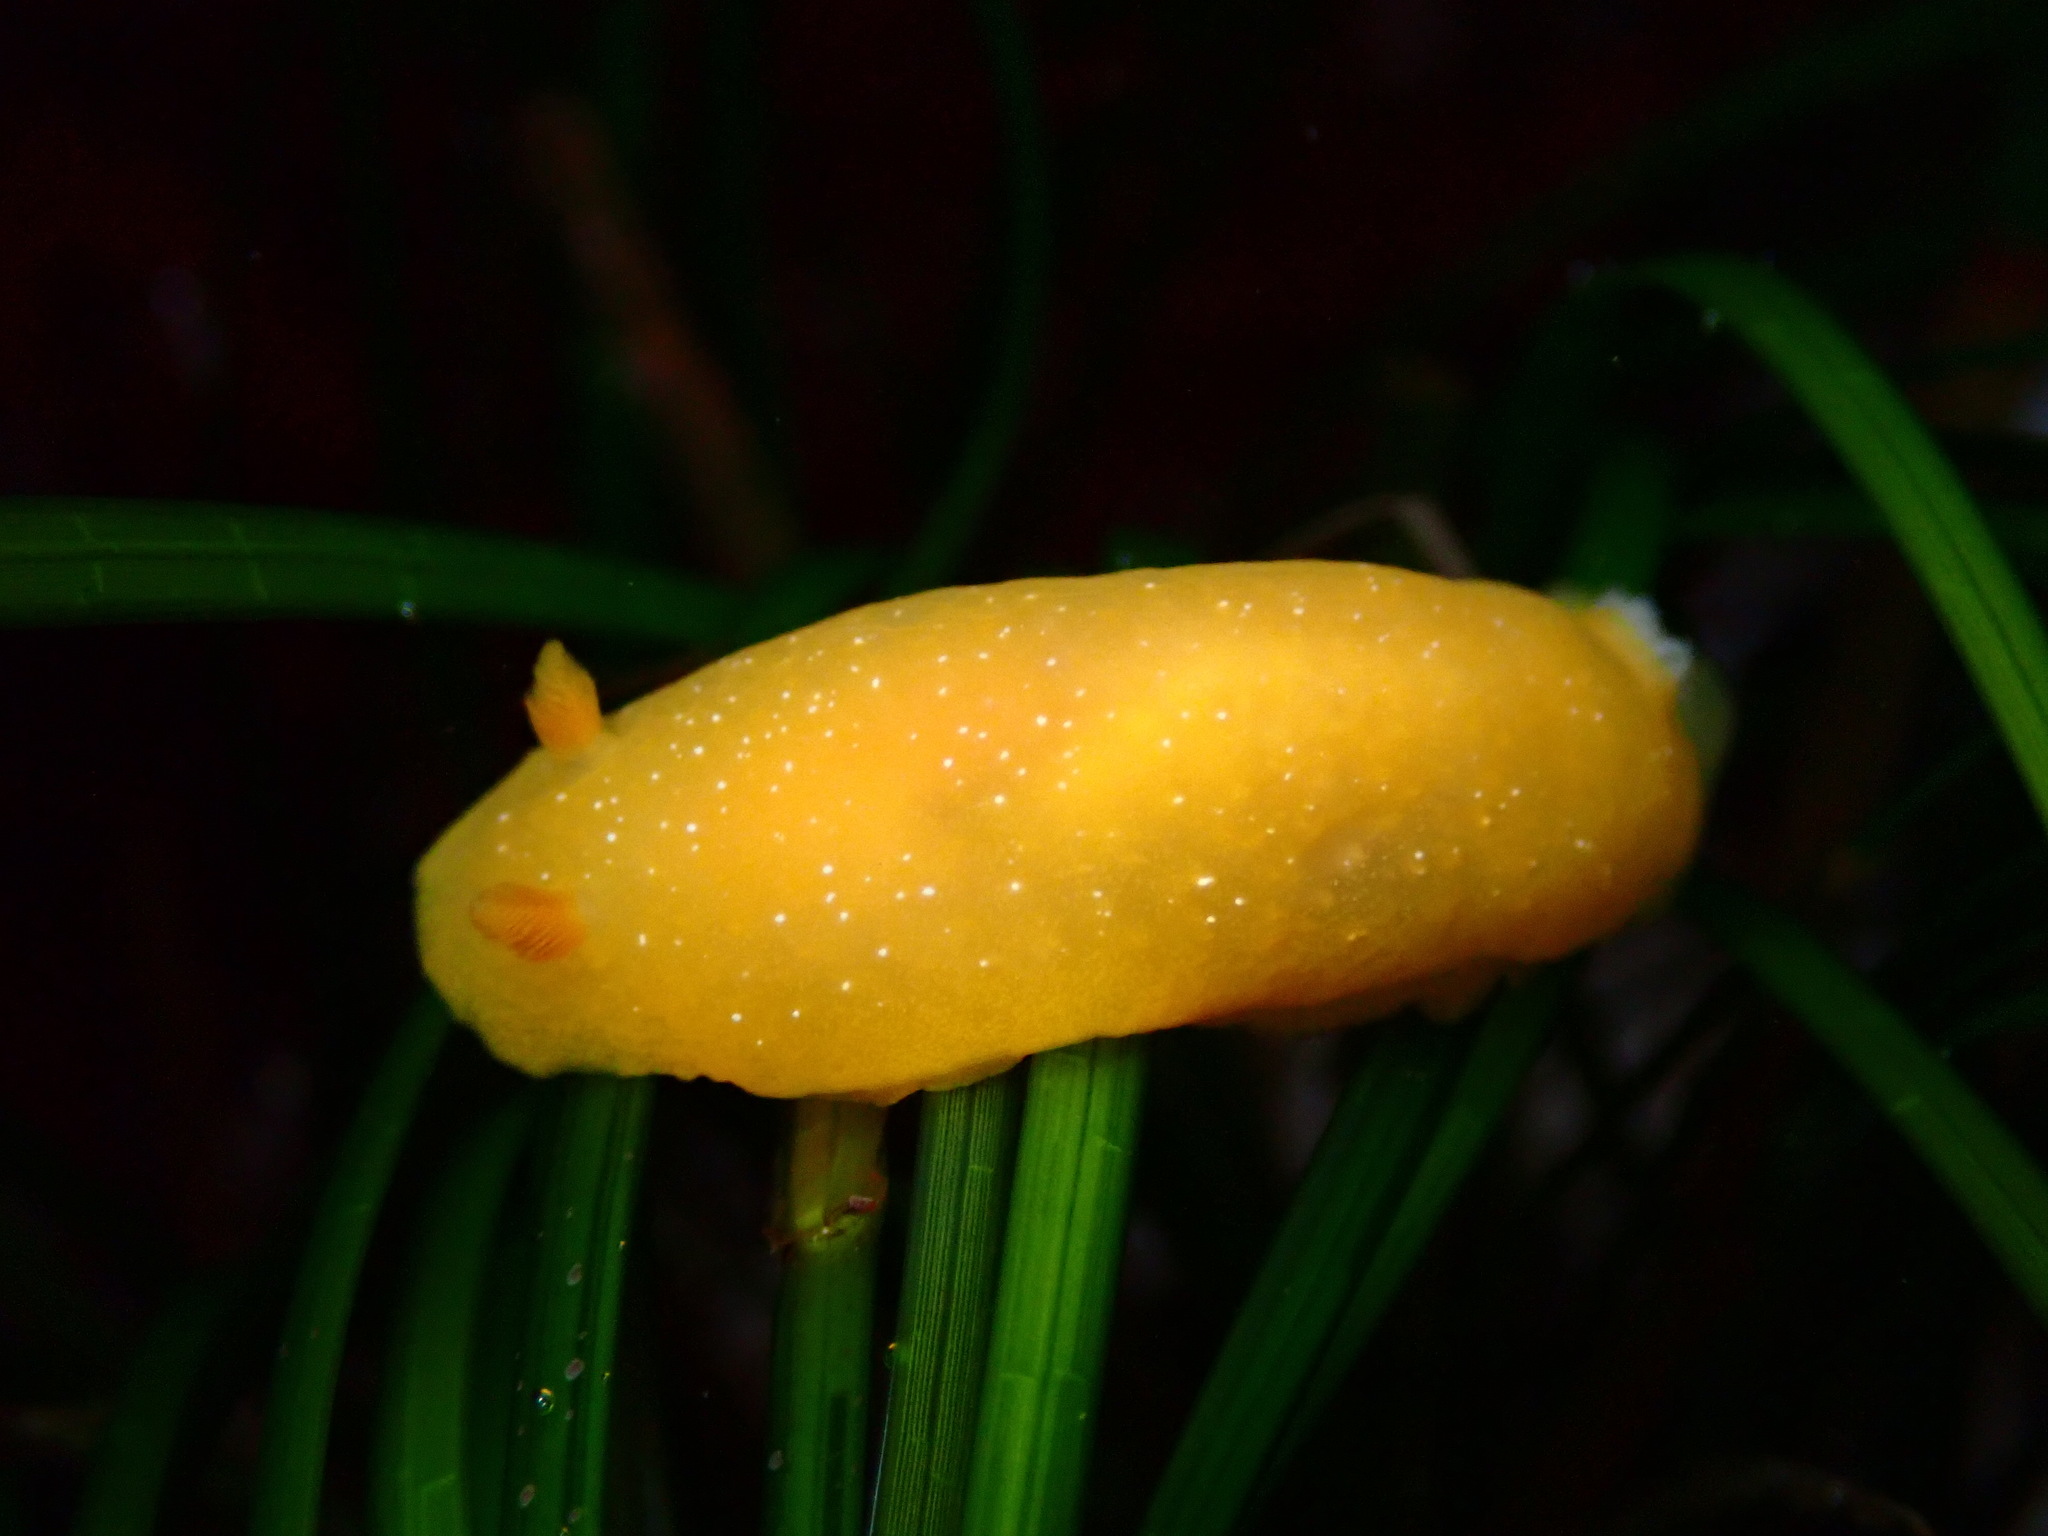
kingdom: Animalia
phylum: Mollusca
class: Gastropoda
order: Nudibranchia
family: Dendrodorididae
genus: Doriopsilla
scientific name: Doriopsilla fulva
